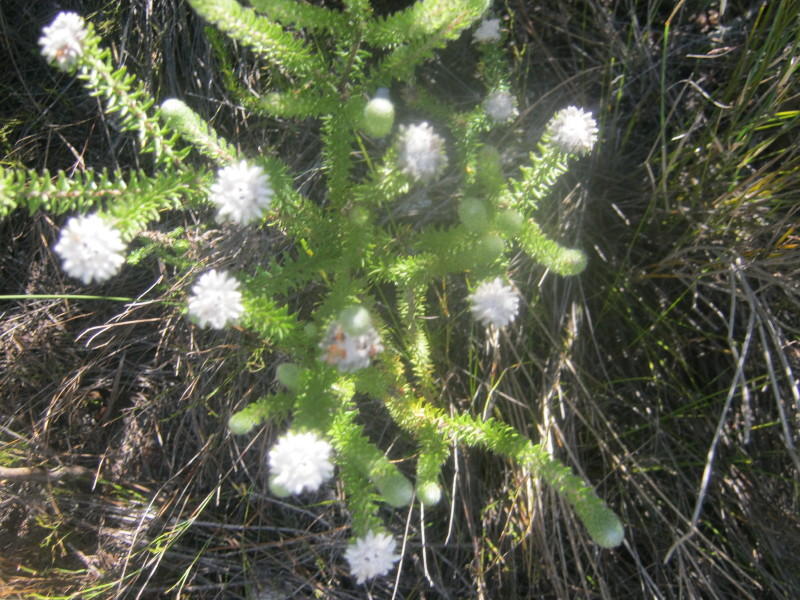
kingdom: Plantae
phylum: Tracheophyta
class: Magnoliopsida
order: Rosales
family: Rhamnaceae
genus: Phylica
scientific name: Phylica curvifolia
